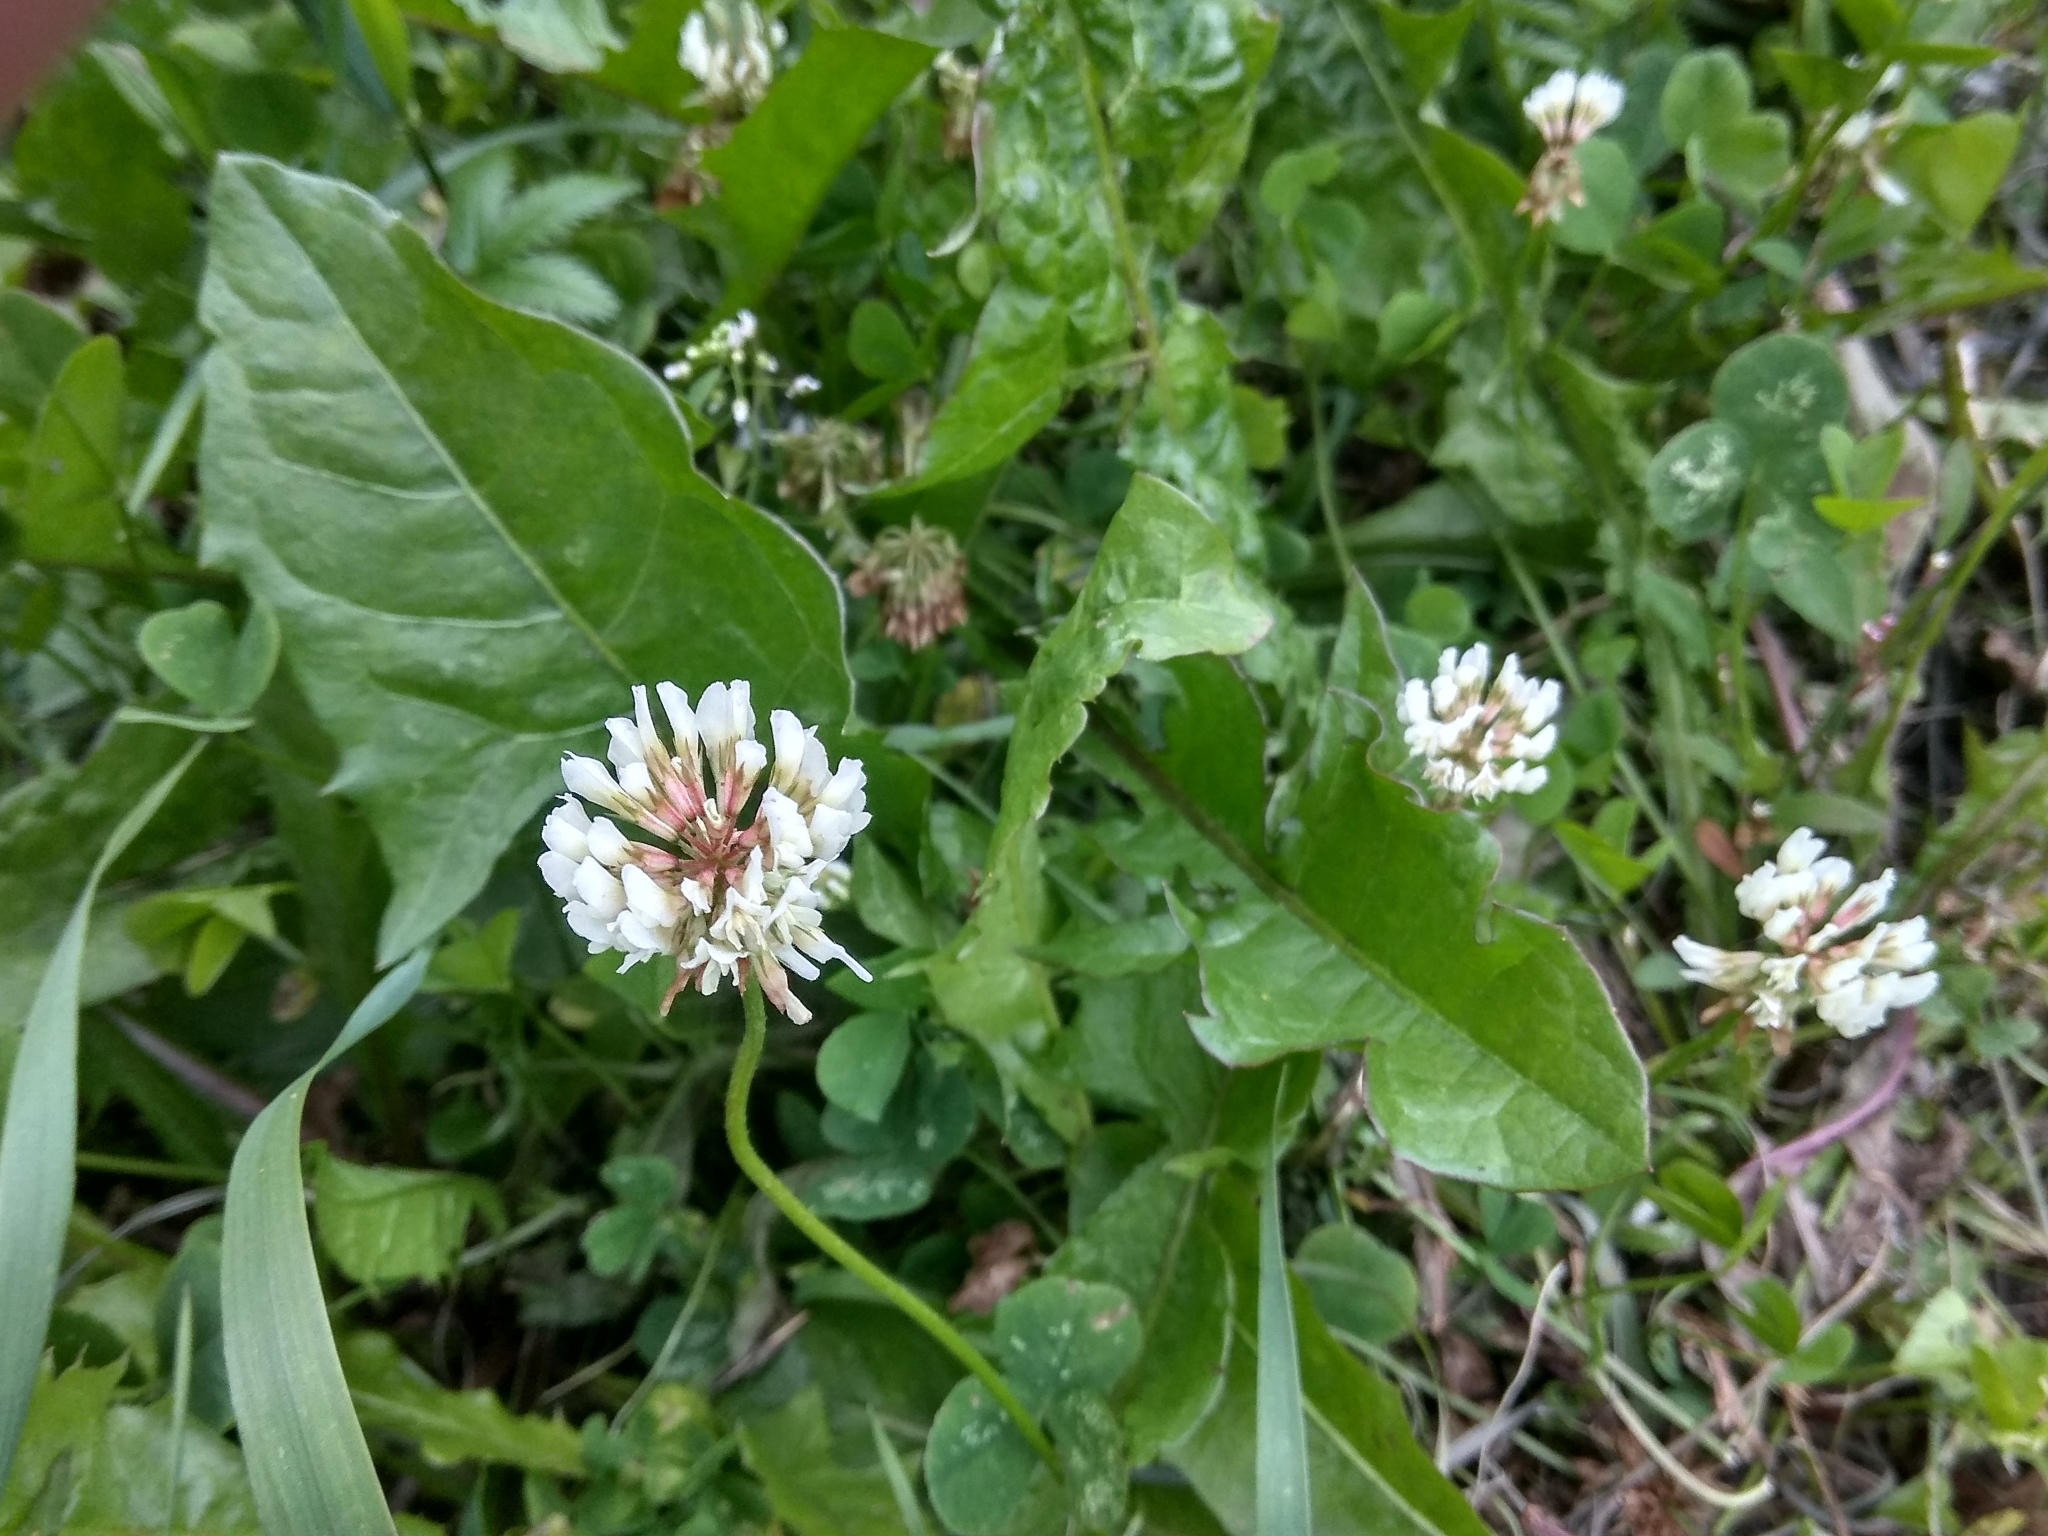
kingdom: Plantae
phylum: Tracheophyta
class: Magnoliopsida
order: Fabales
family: Fabaceae
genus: Trifolium
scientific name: Trifolium repens
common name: White clover
